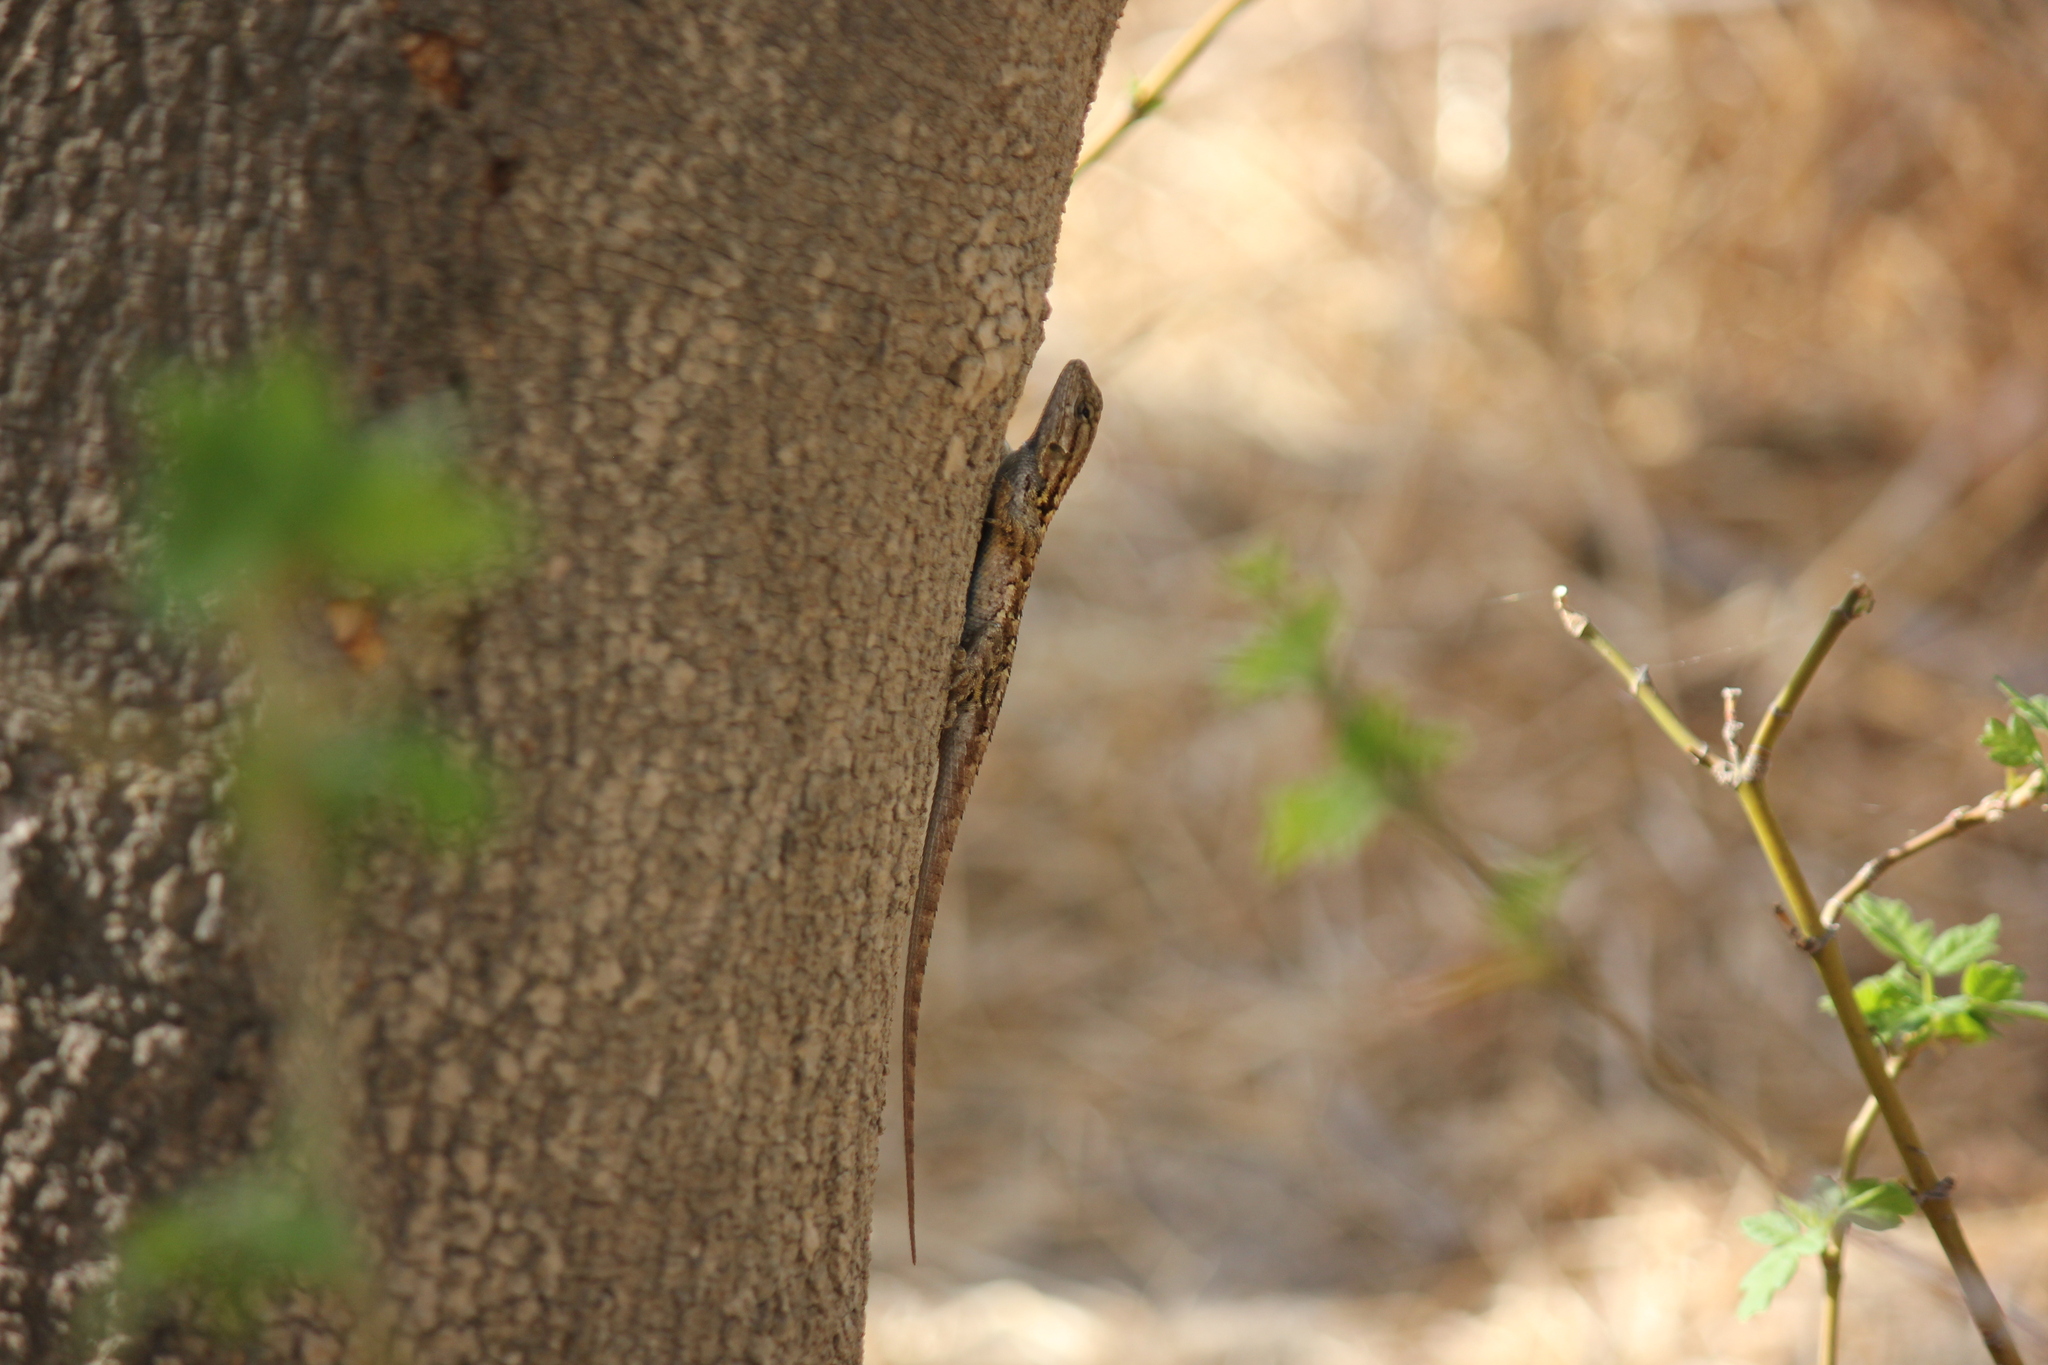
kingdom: Animalia
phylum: Chordata
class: Squamata
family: Phrynosomatidae
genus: Sceloporus
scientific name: Sceloporus occidentalis
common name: Western fence lizard
